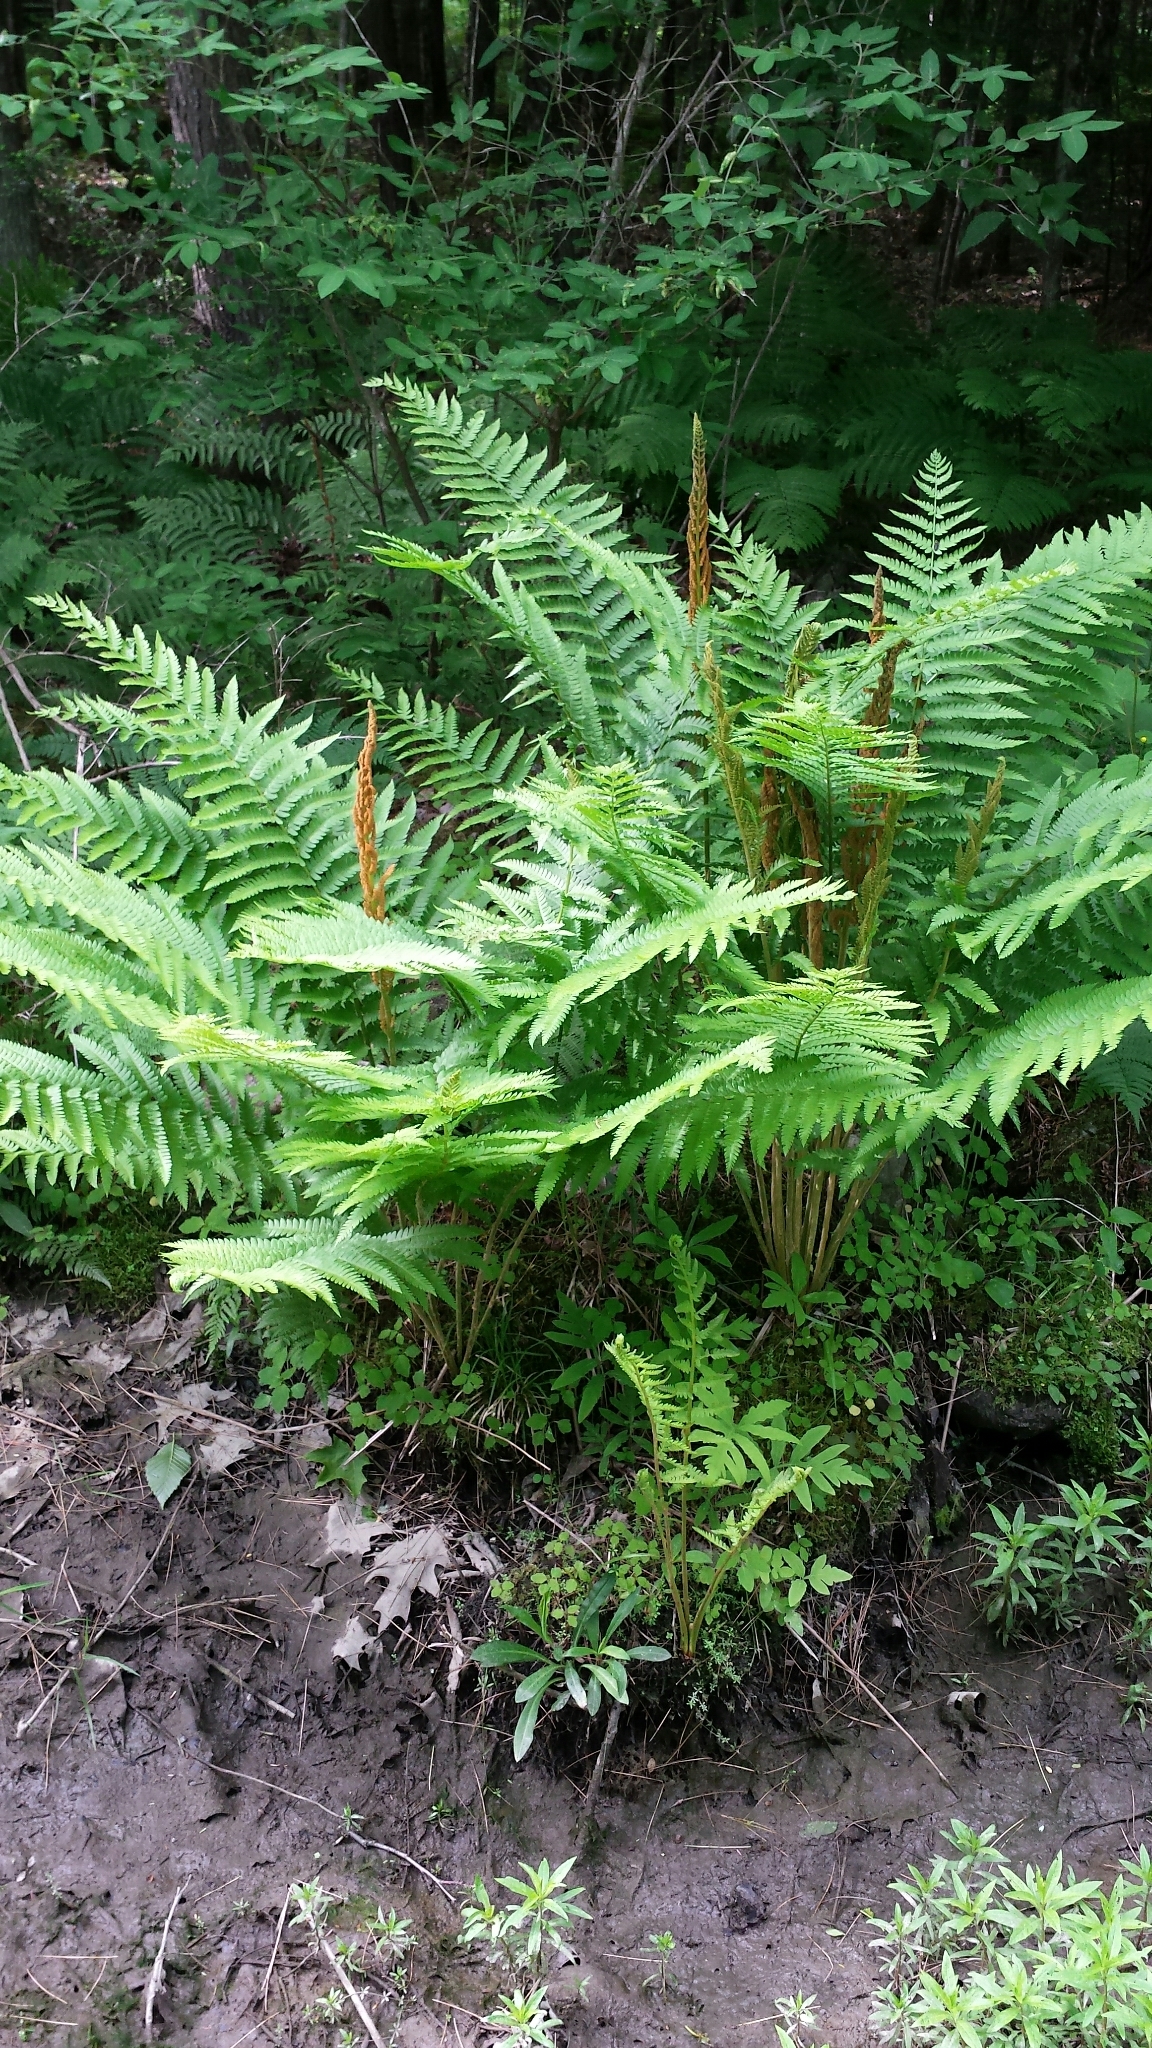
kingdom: Plantae
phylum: Tracheophyta
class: Polypodiopsida
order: Osmundales
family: Osmundaceae
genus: Osmundastrum
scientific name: Osmundastrum cinnamomeum
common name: Cinnamon fern
